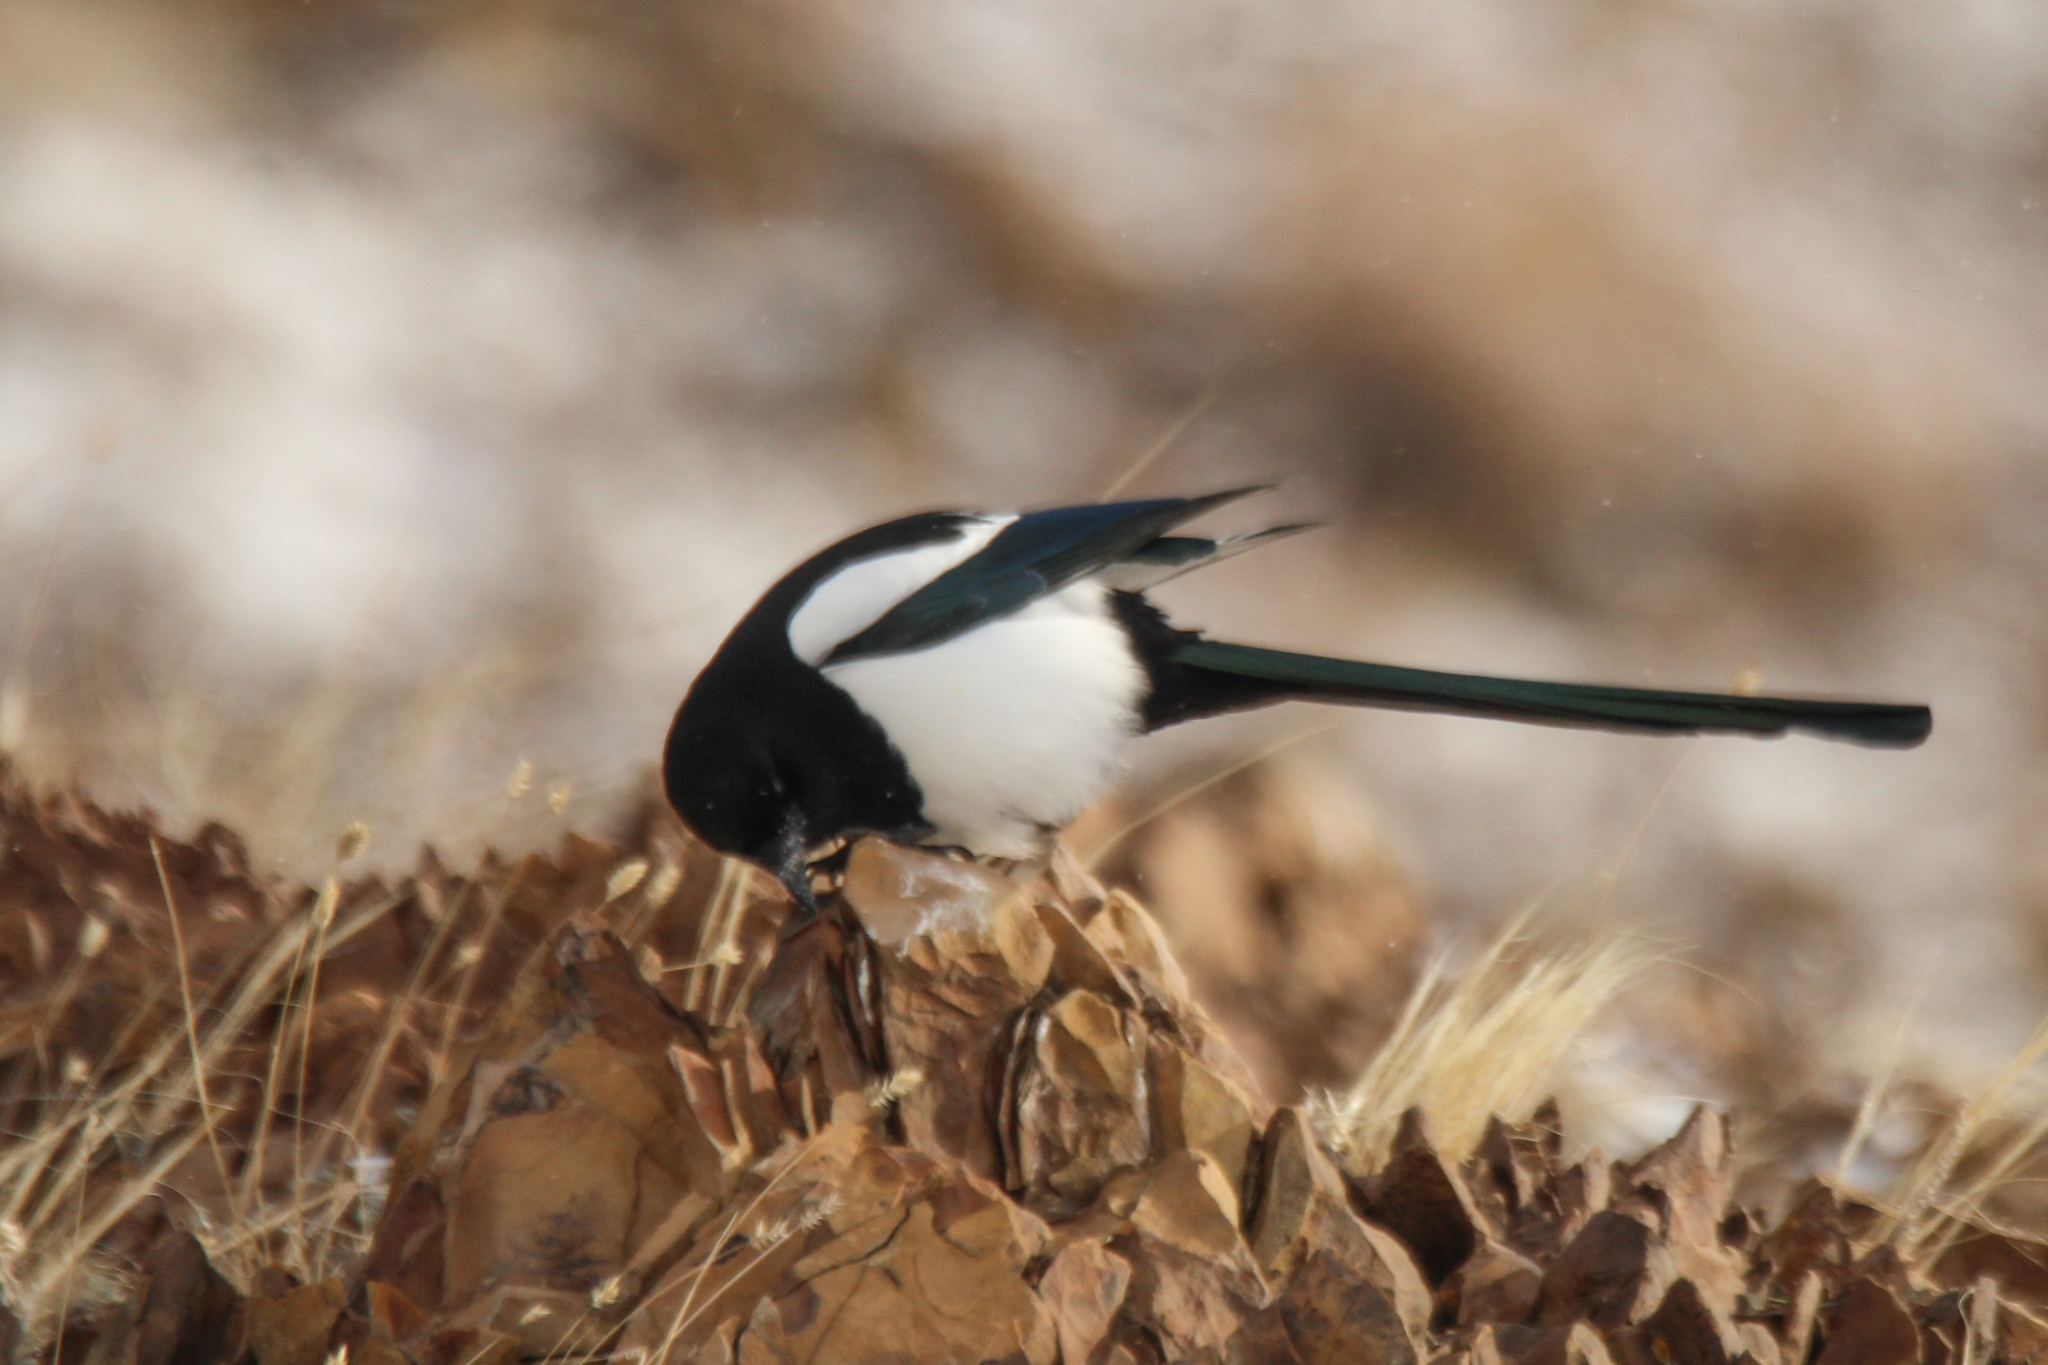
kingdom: Animalia
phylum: Chordata
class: Aves
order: Passeriformes
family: Corvidae
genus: Pica
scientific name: Pica pica
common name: Eurasian magpie
